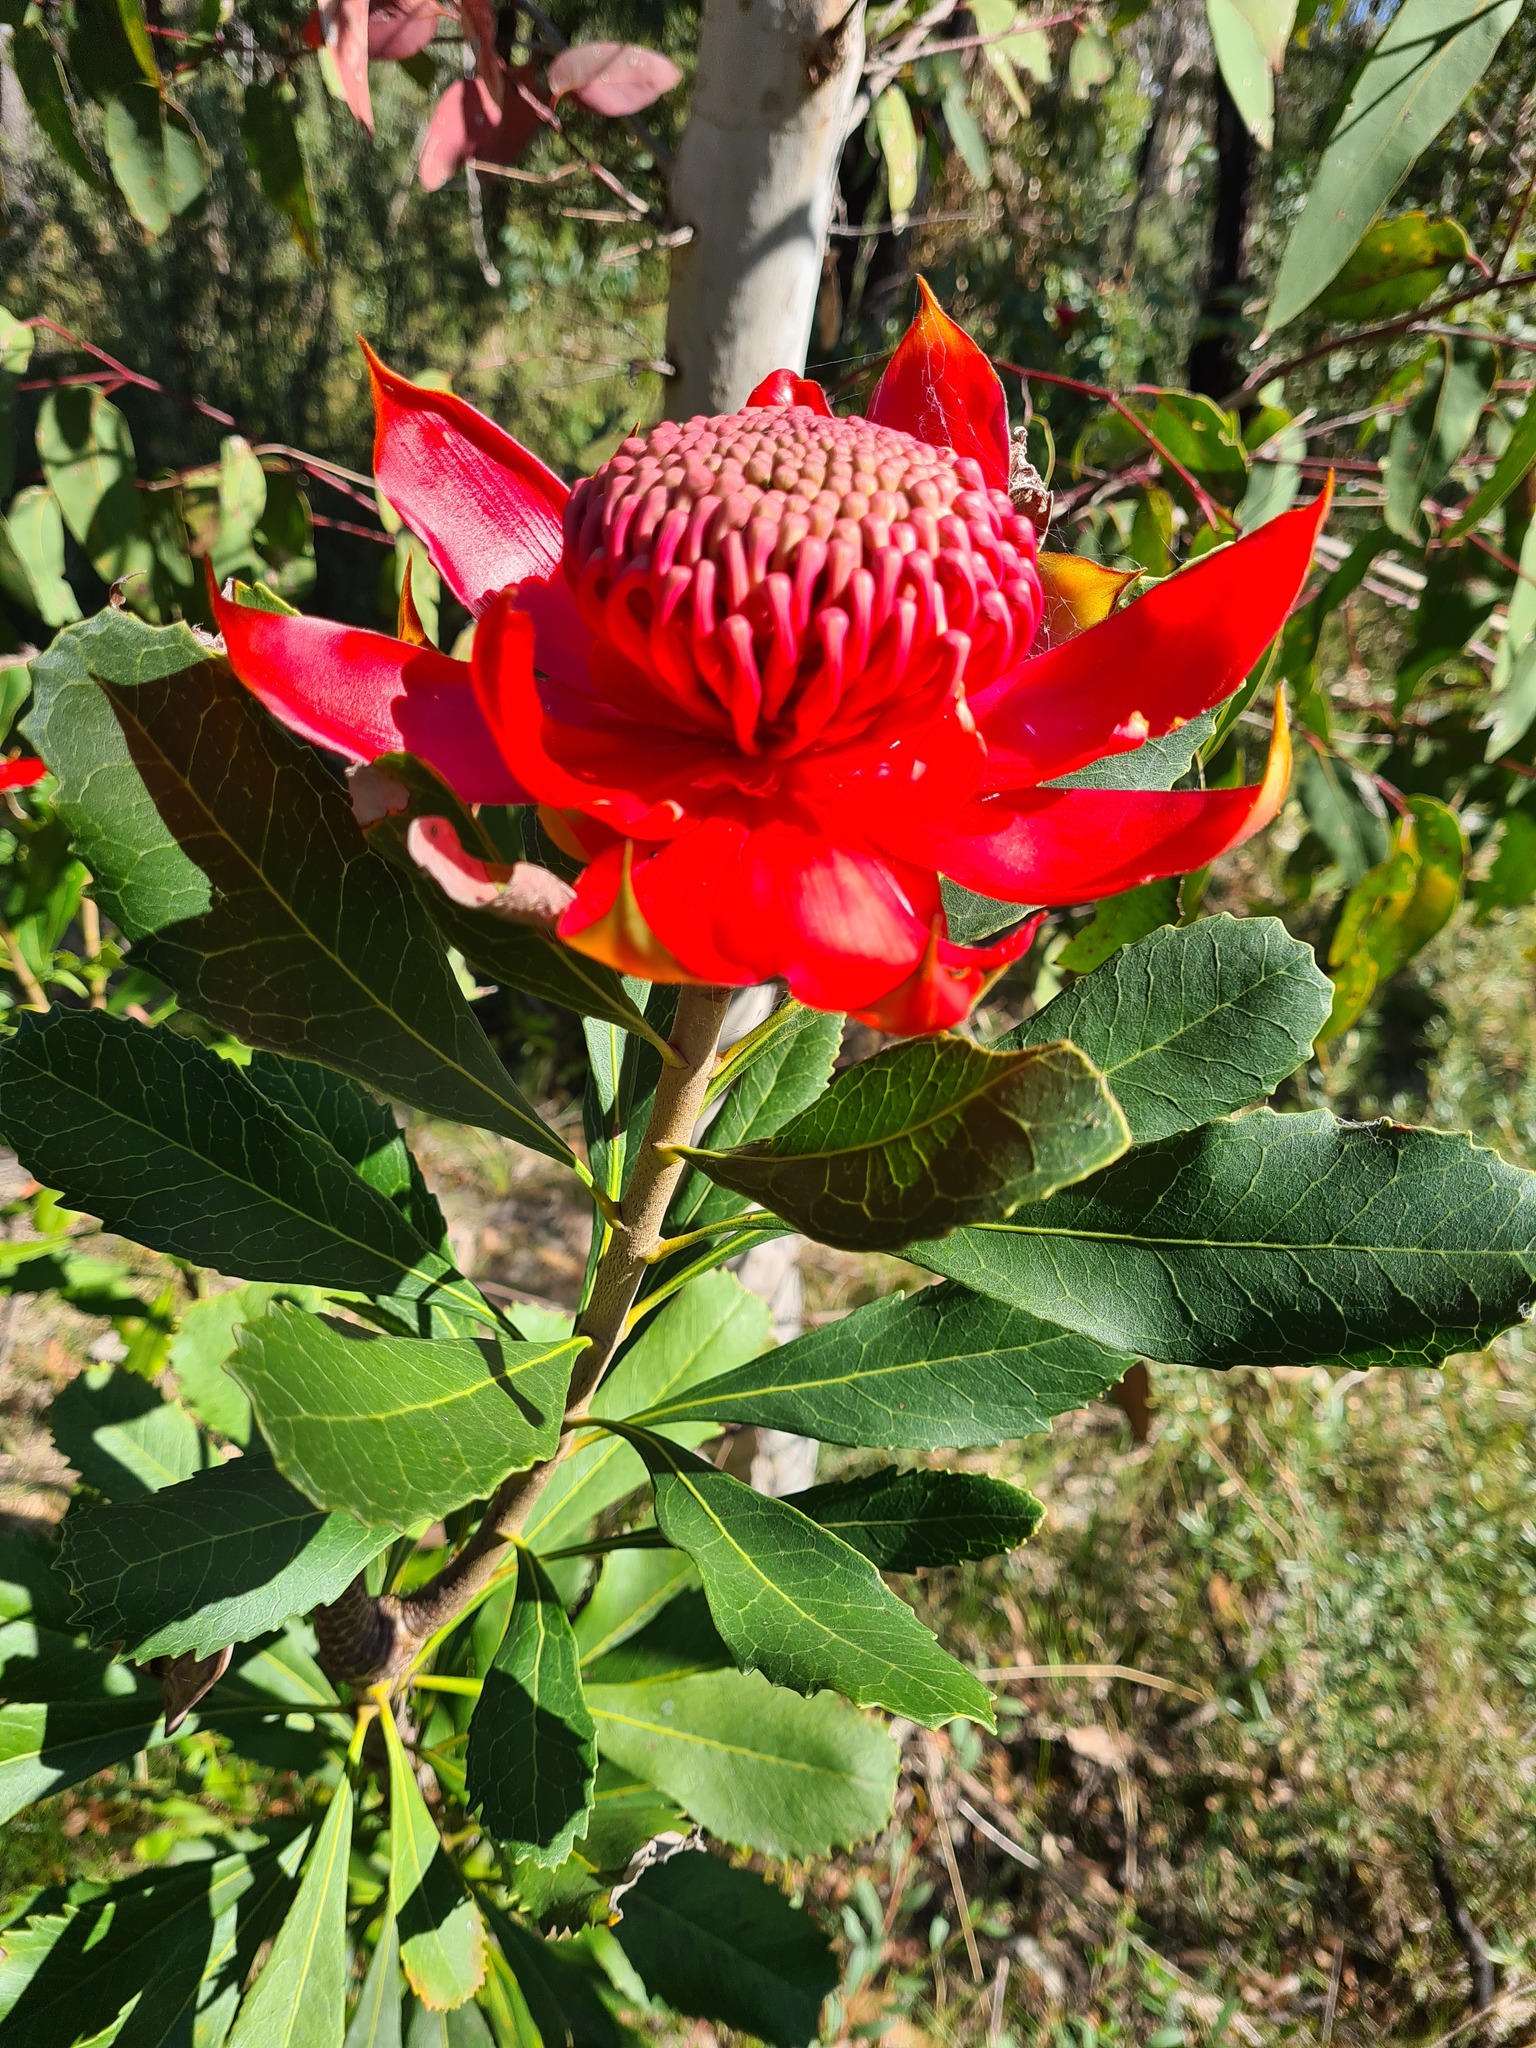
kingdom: Plantae
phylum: Tracheophyta
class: Magnoliopsida
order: Proteales
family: Proteaceae
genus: Telopea
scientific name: Telopea speciosissima
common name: New south wales waratah
